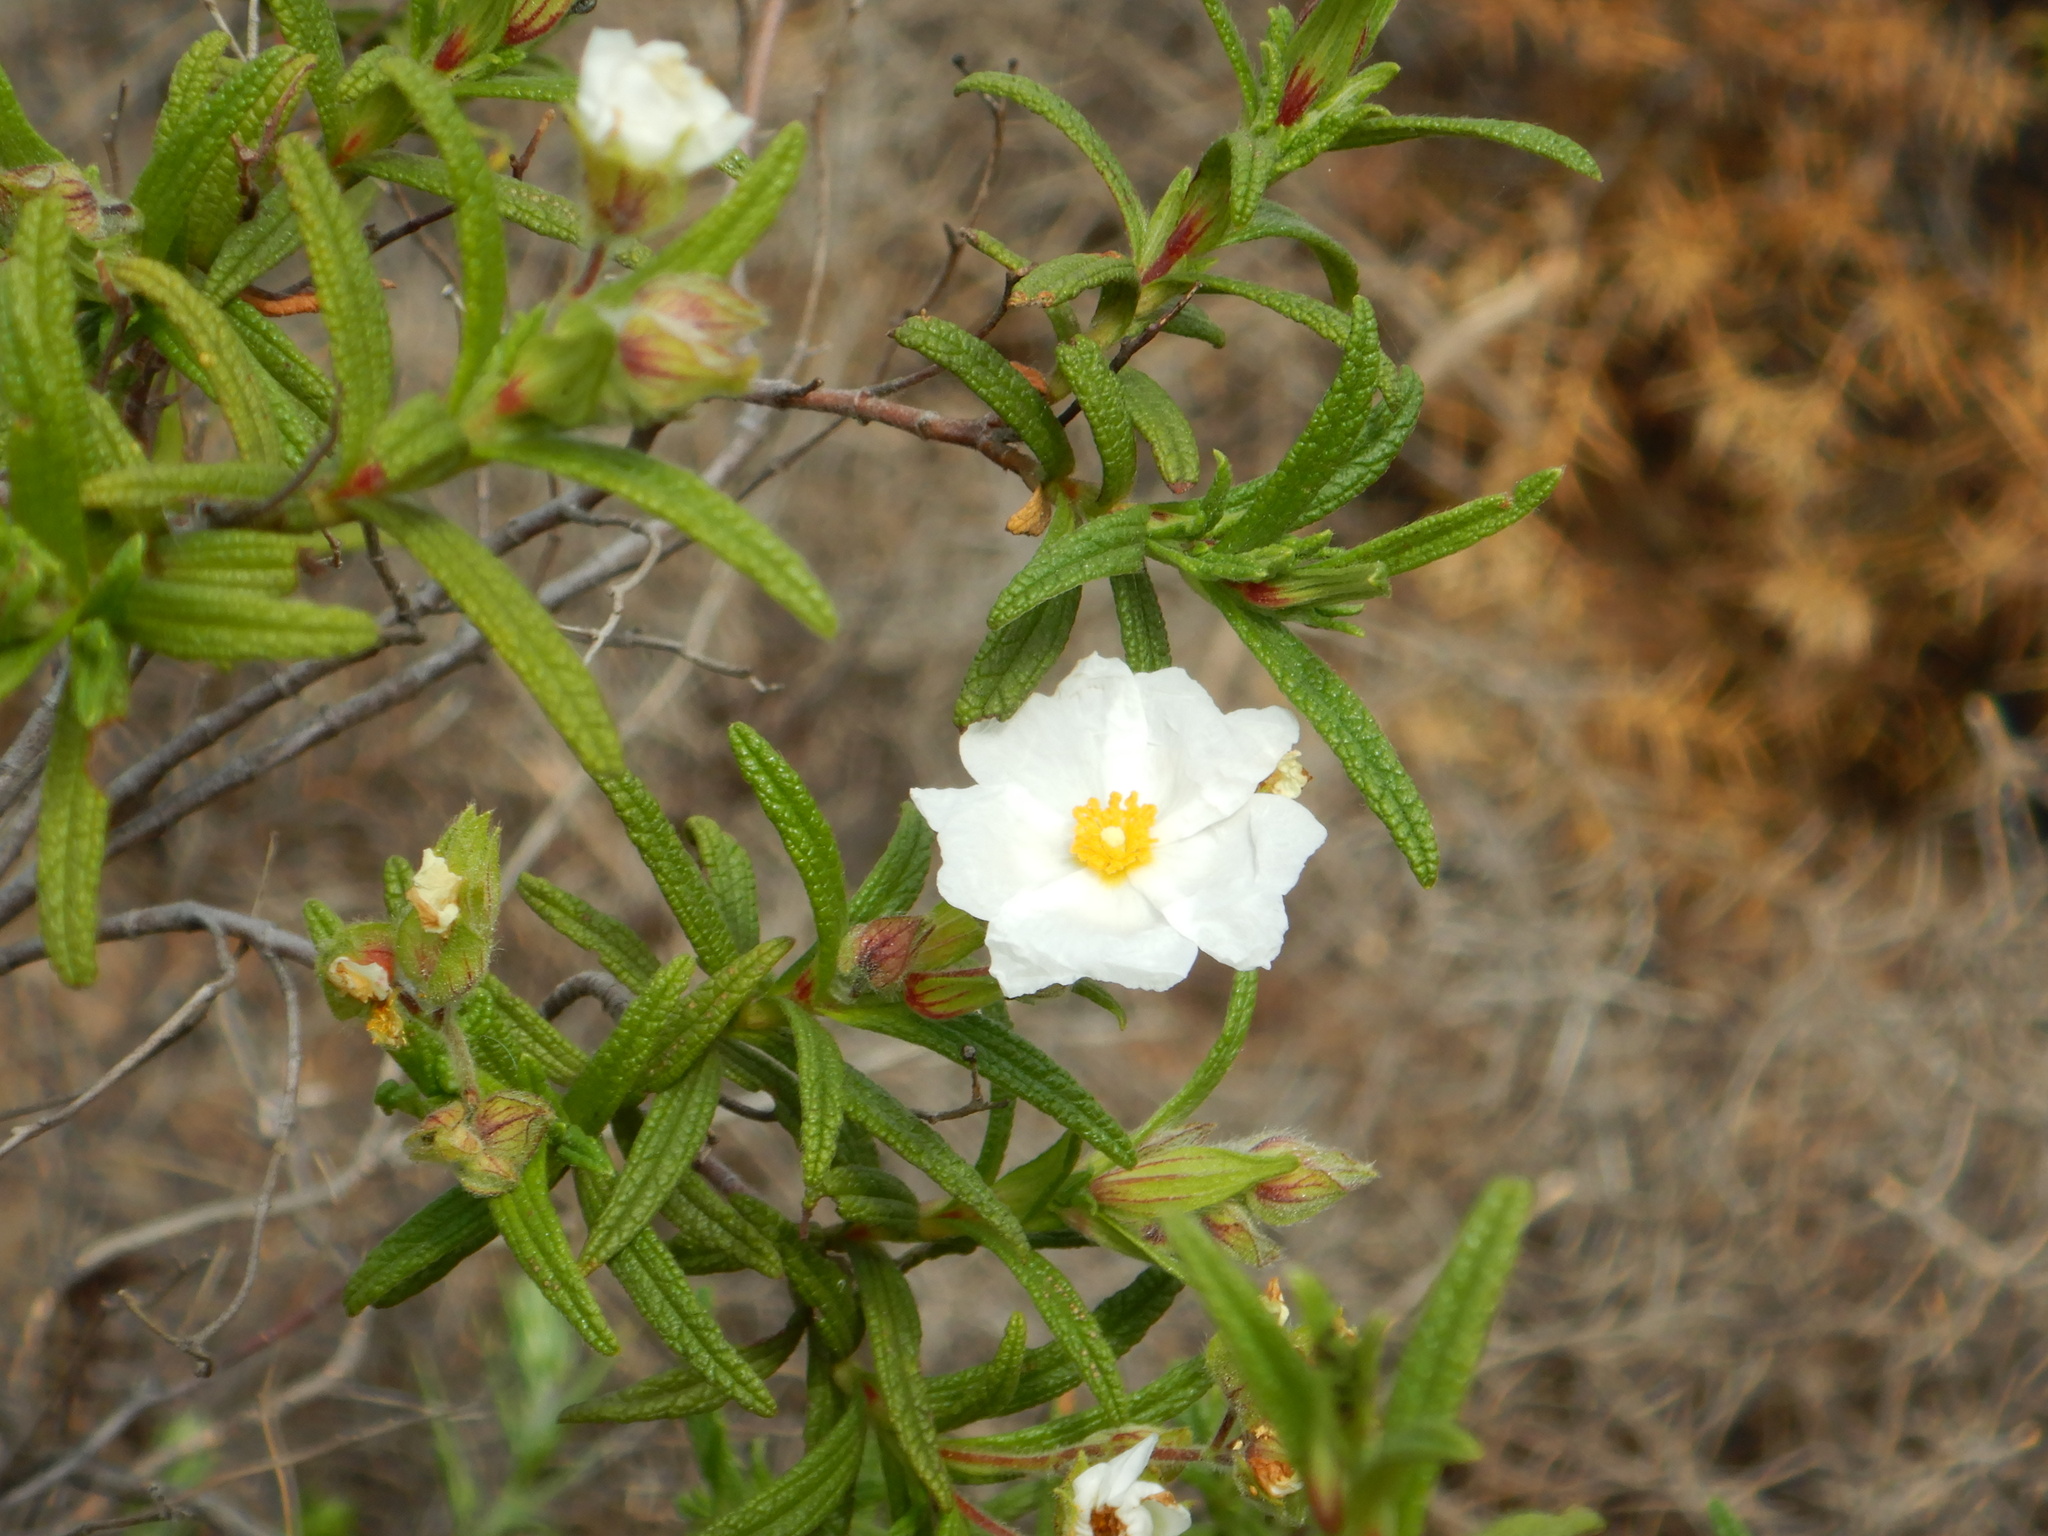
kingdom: Plantae
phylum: Tracheophyta
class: Magnoliopsida
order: Malvales
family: Cistaceae
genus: Cistus
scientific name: Cistus monspeliensis
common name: Montpelier cistus
